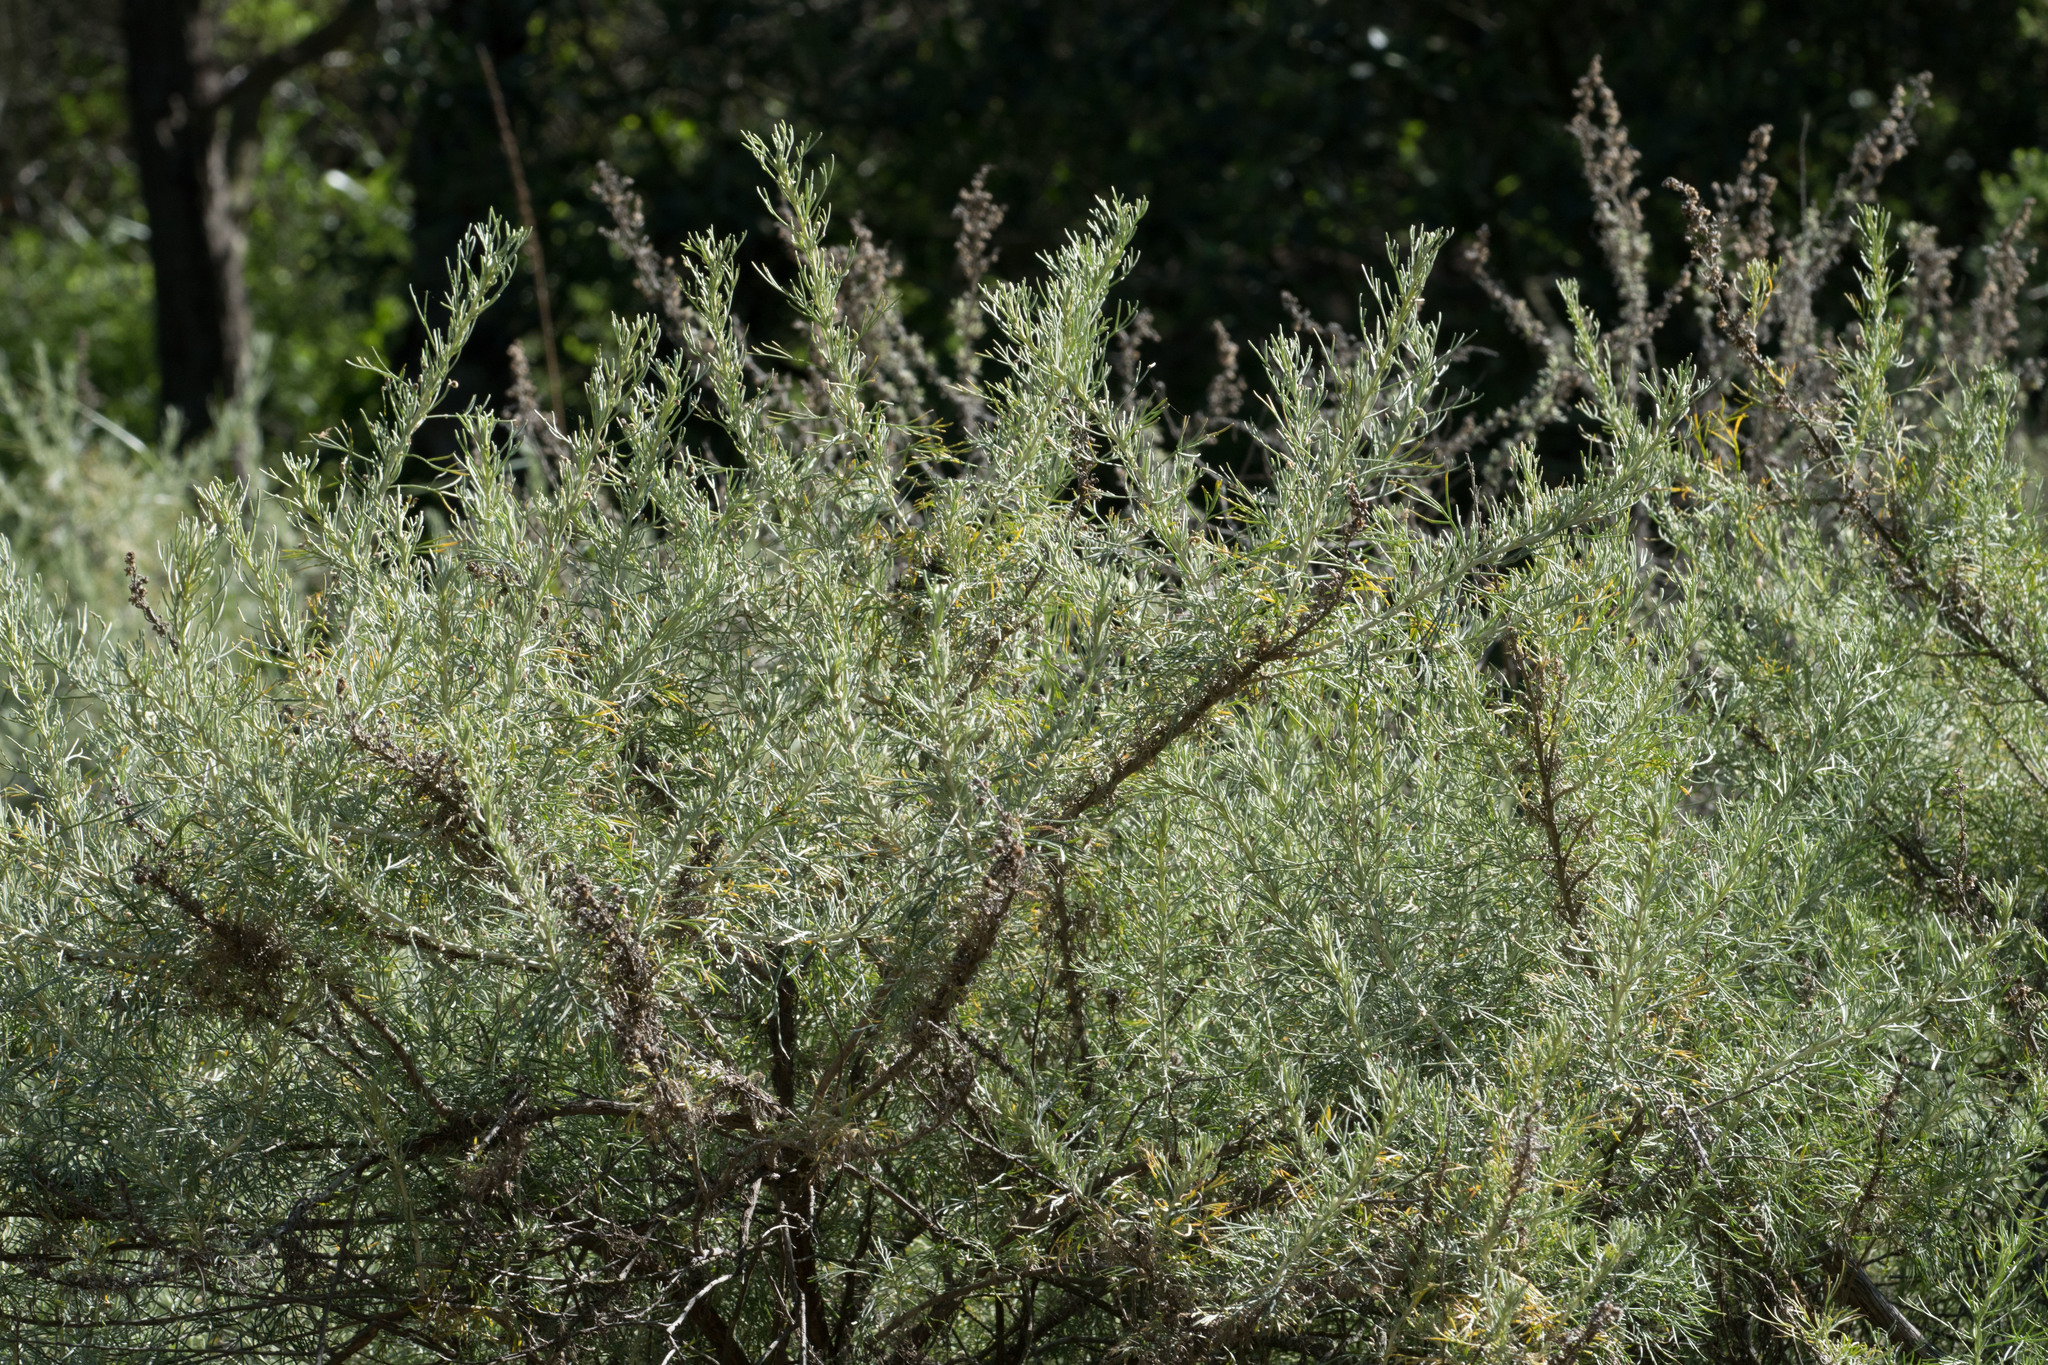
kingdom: Plantae
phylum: Tracheophyta
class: Magnoliopsida
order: Asterales
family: Asteraceae
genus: Artemisia
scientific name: Artemisia californica
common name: California sagebrush
